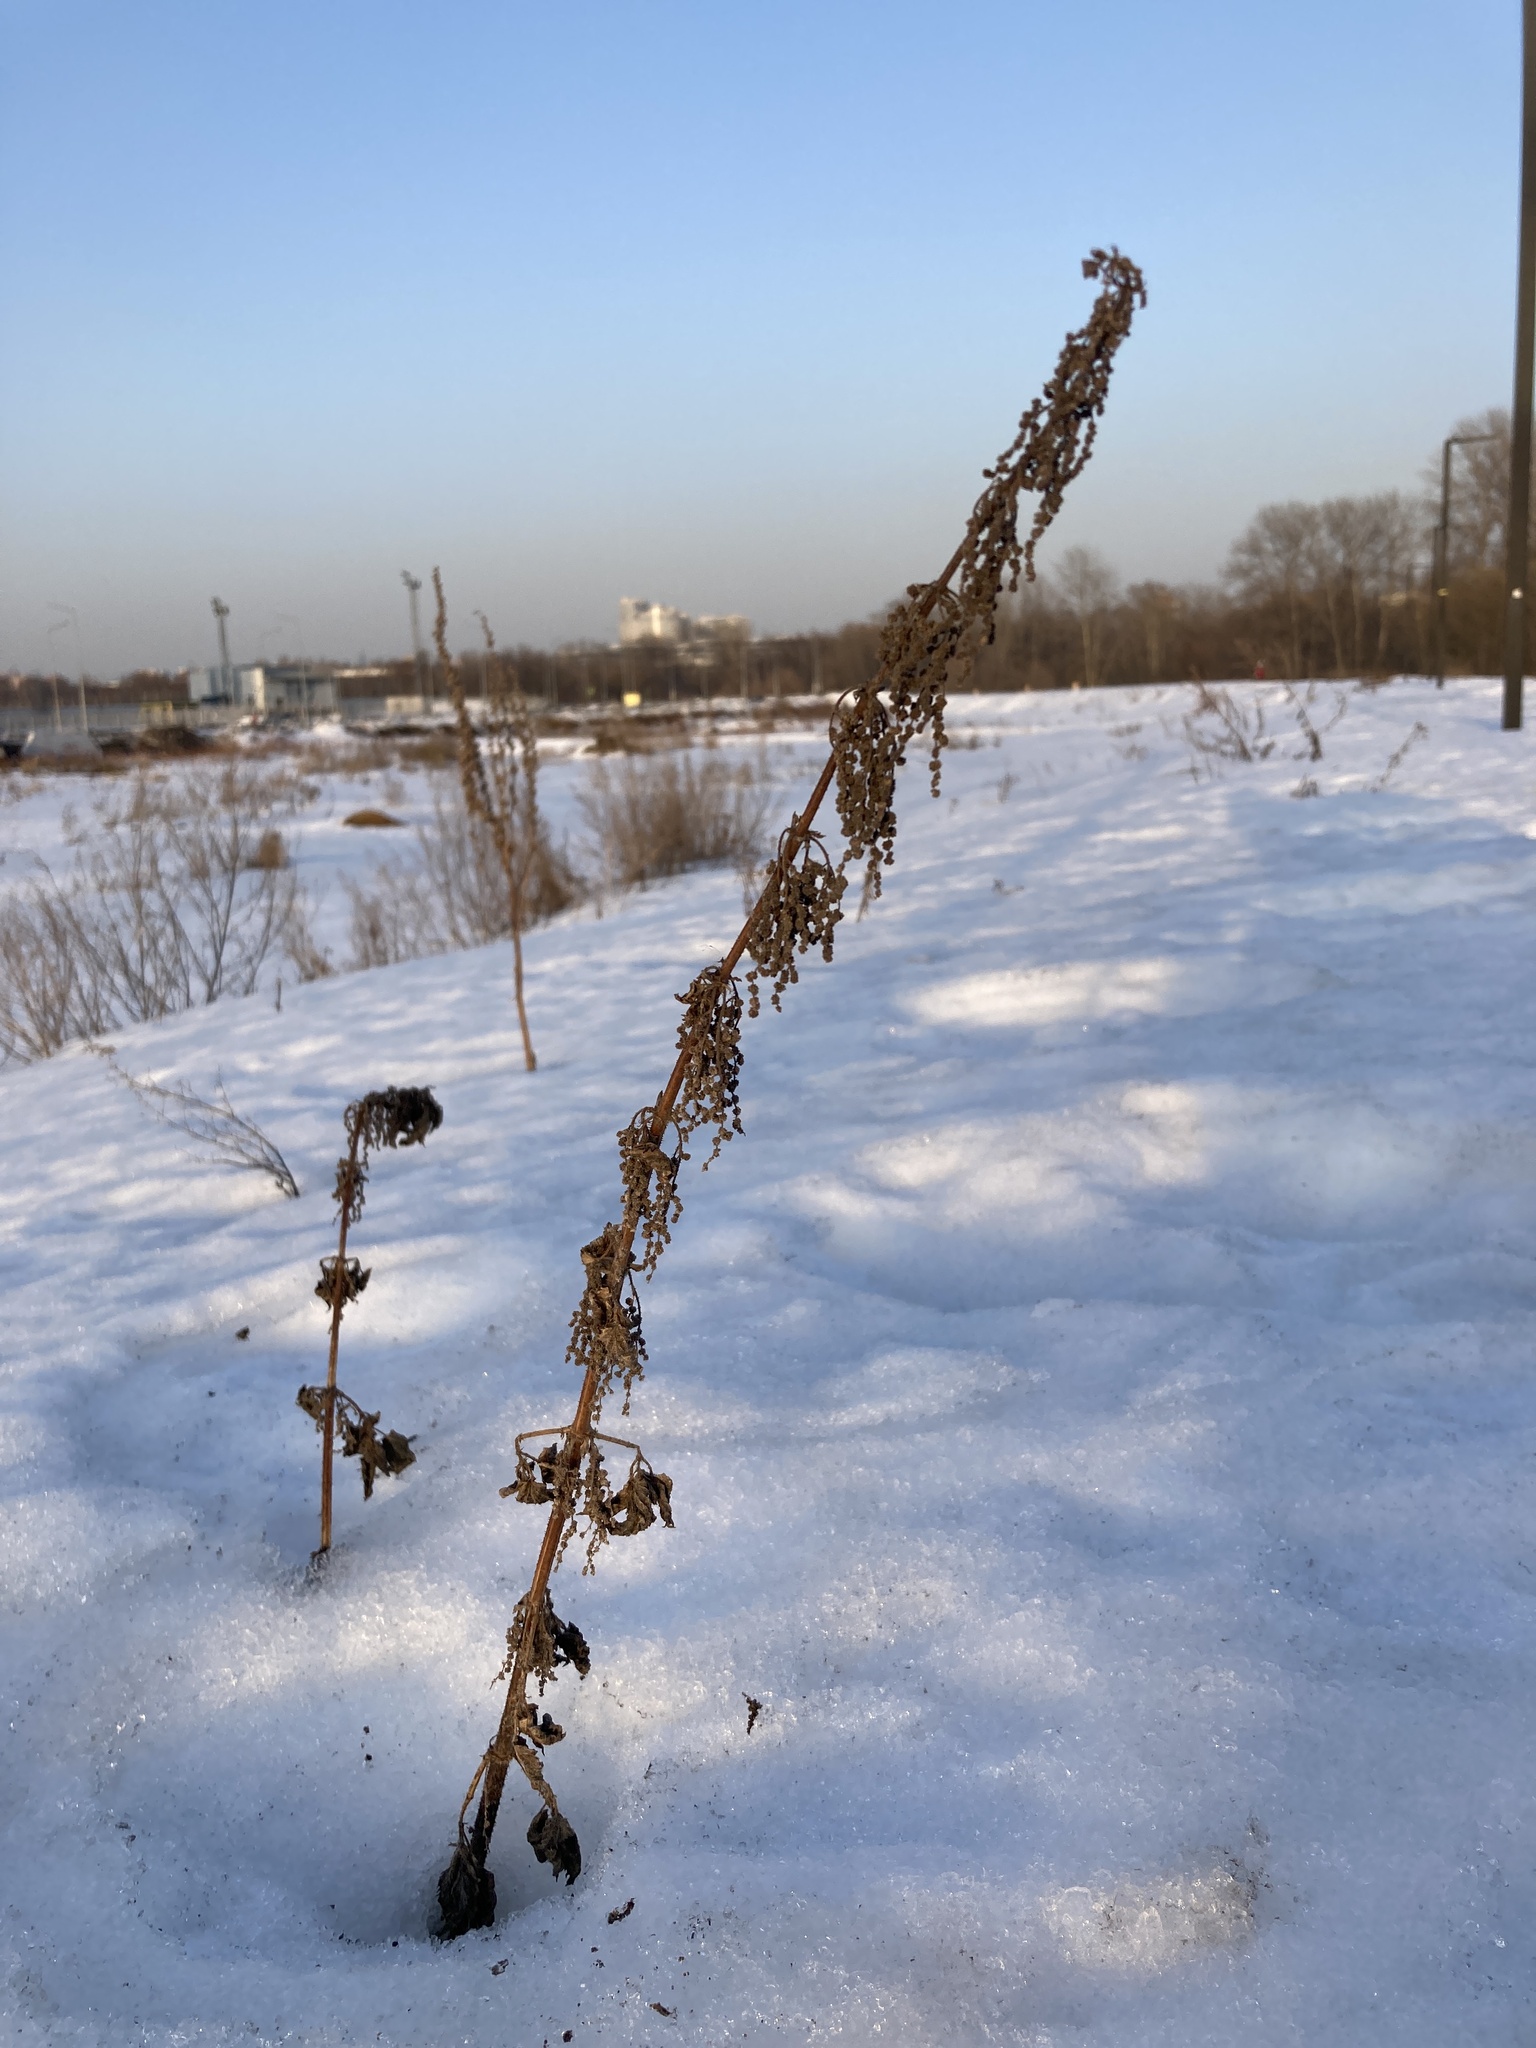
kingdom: Plantae
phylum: Tracheophyta
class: Magnoliopsida
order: Rosales
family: Urticaceae
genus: Urtica
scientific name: Urtica dioica
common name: Common nettle
